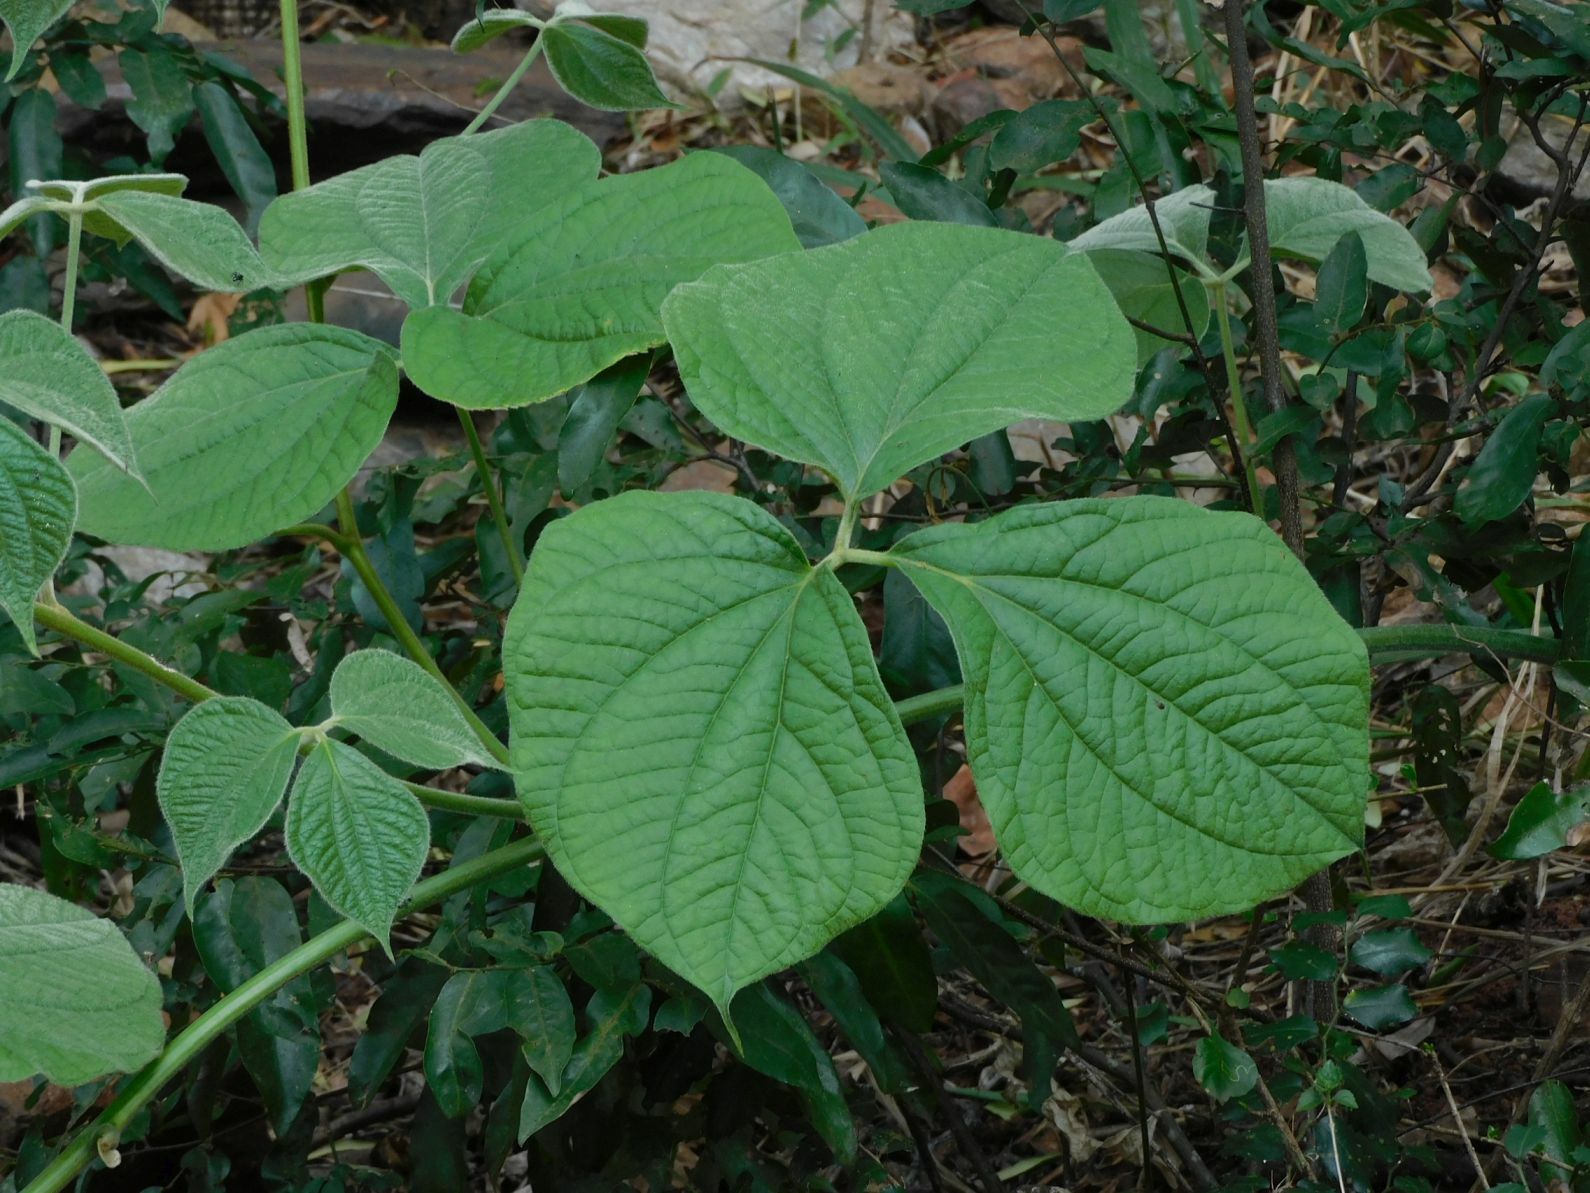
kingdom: Plantae
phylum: Tracheophyta
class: Liliopsida
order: Dioscoreales
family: Dioscoreaceae
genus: Dioscorea
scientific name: Dioscorea dregeana
